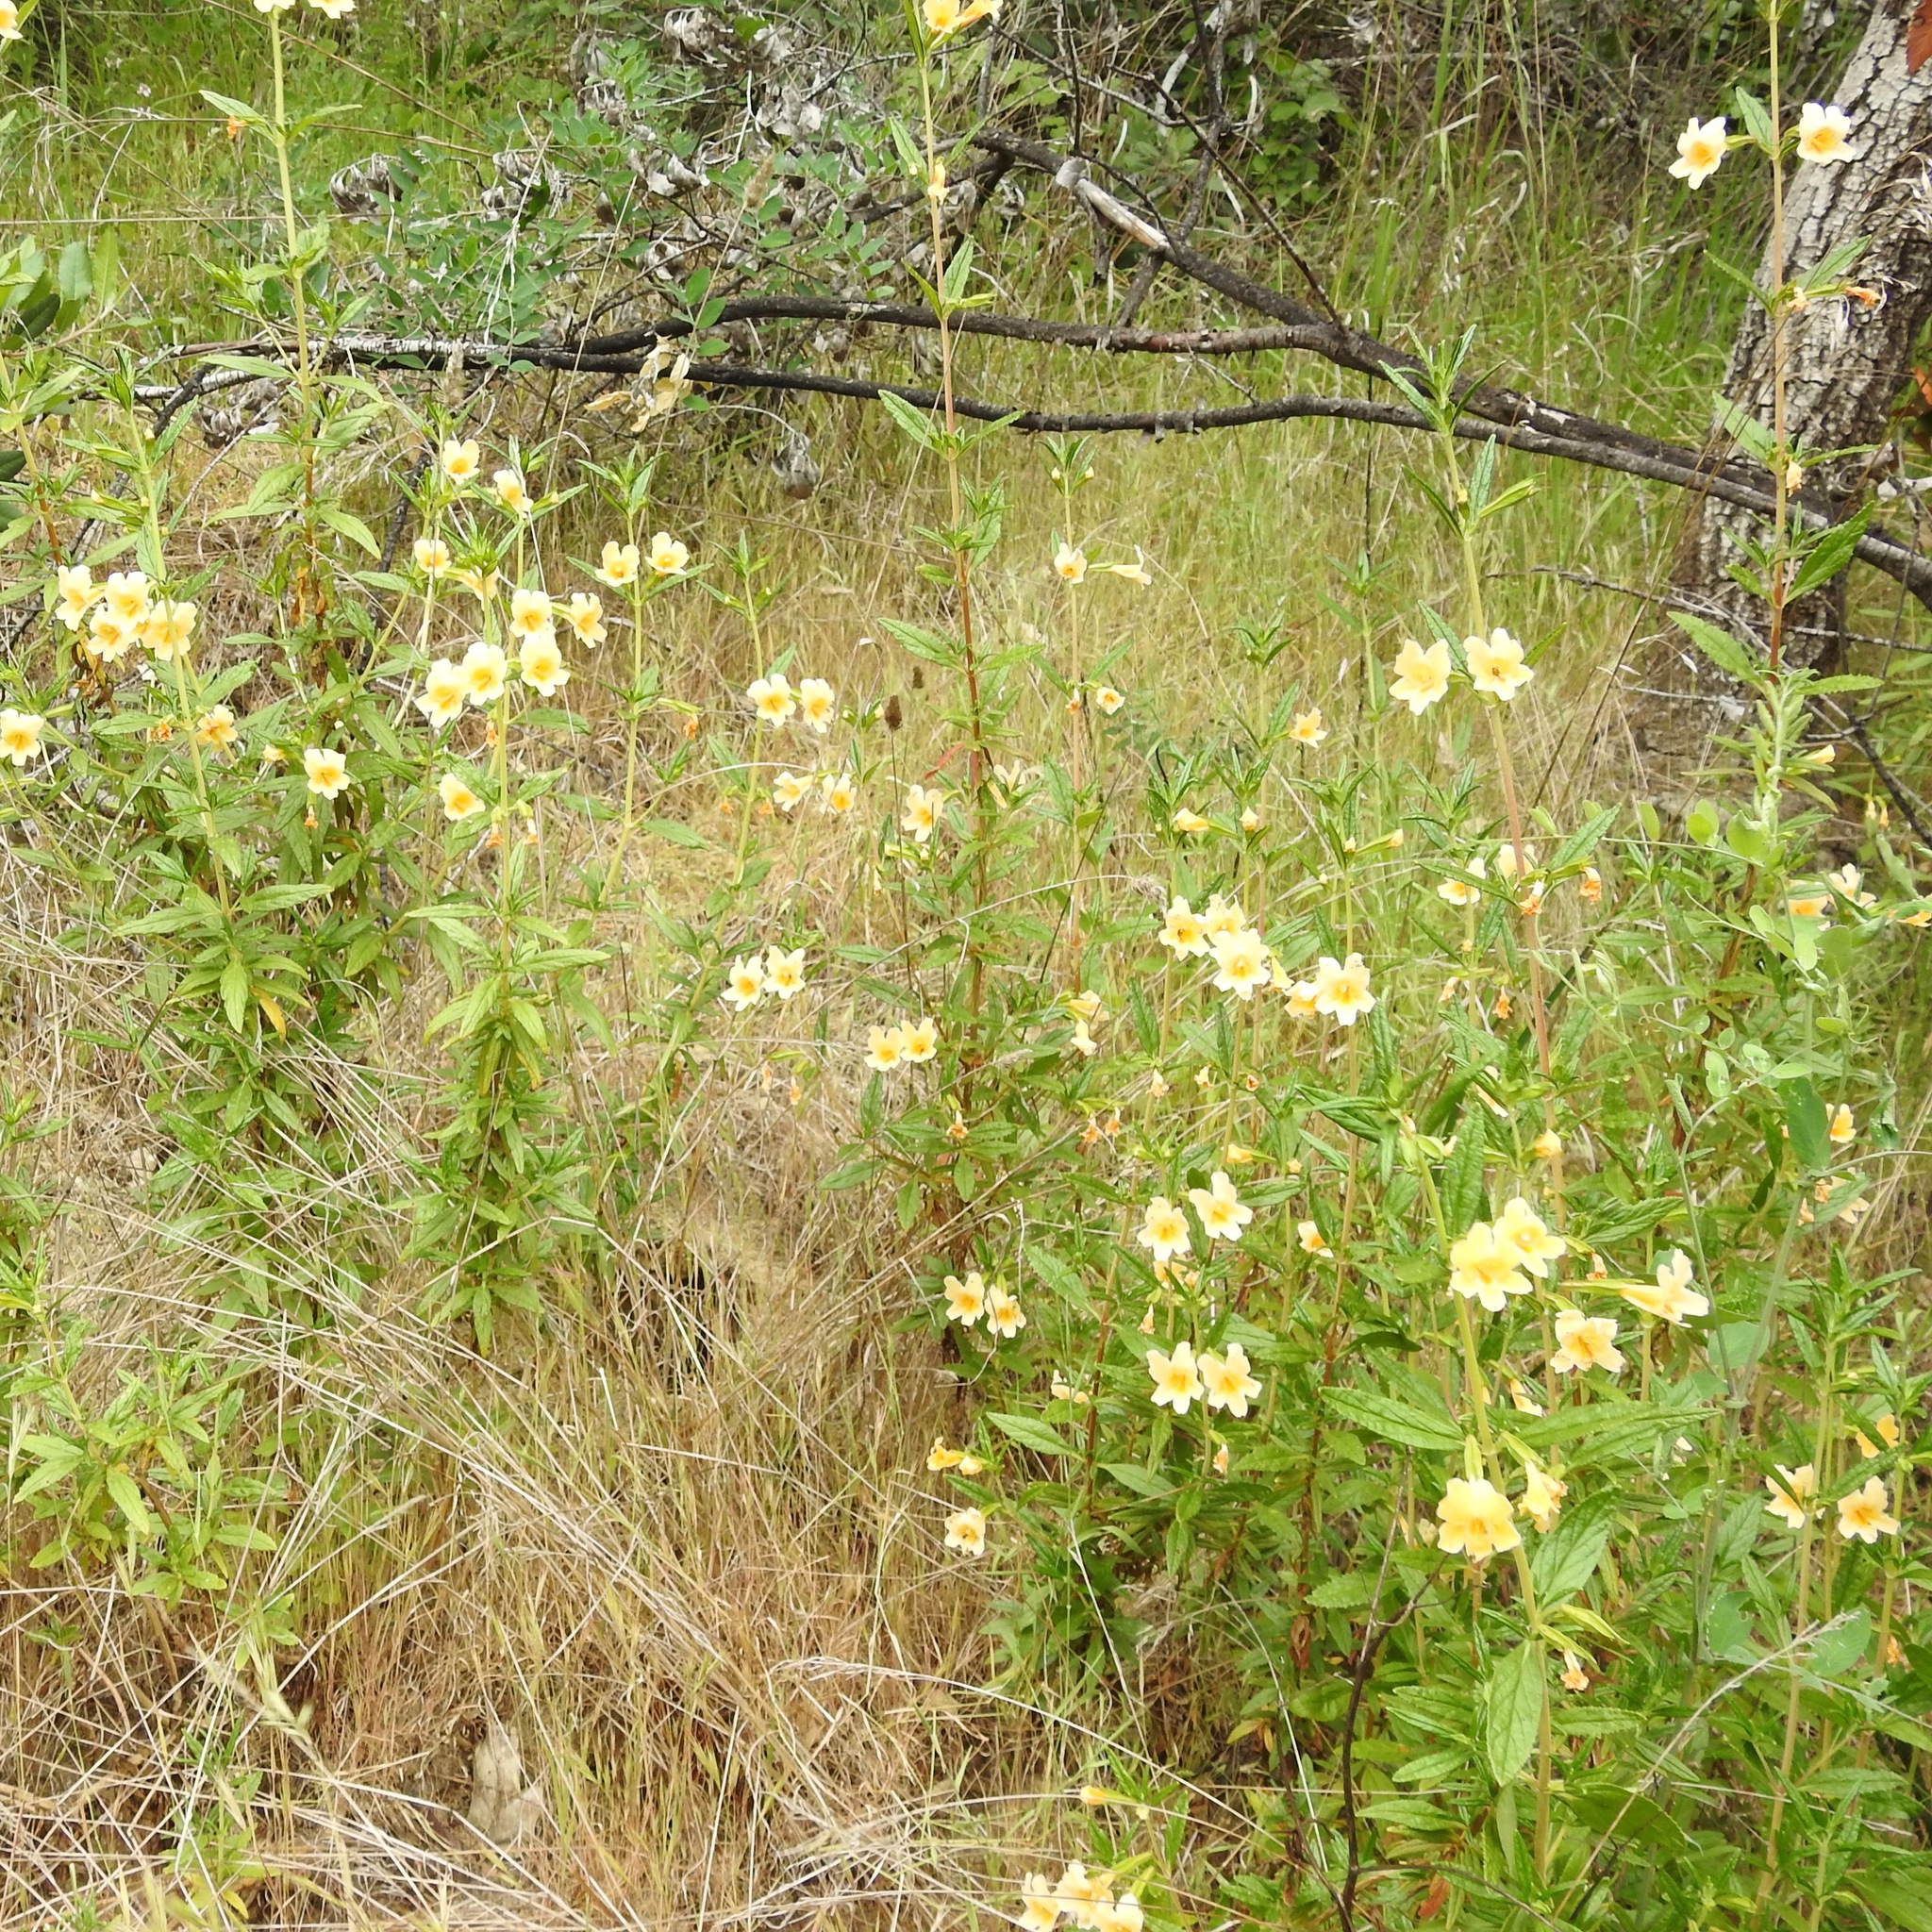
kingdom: Plantae
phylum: Tracheophyta
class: Magnoliopsida
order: Lamiales
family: Phrymaceae
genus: Diplacus
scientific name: Diplacus aurantiacus
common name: Bush monkey-flower
